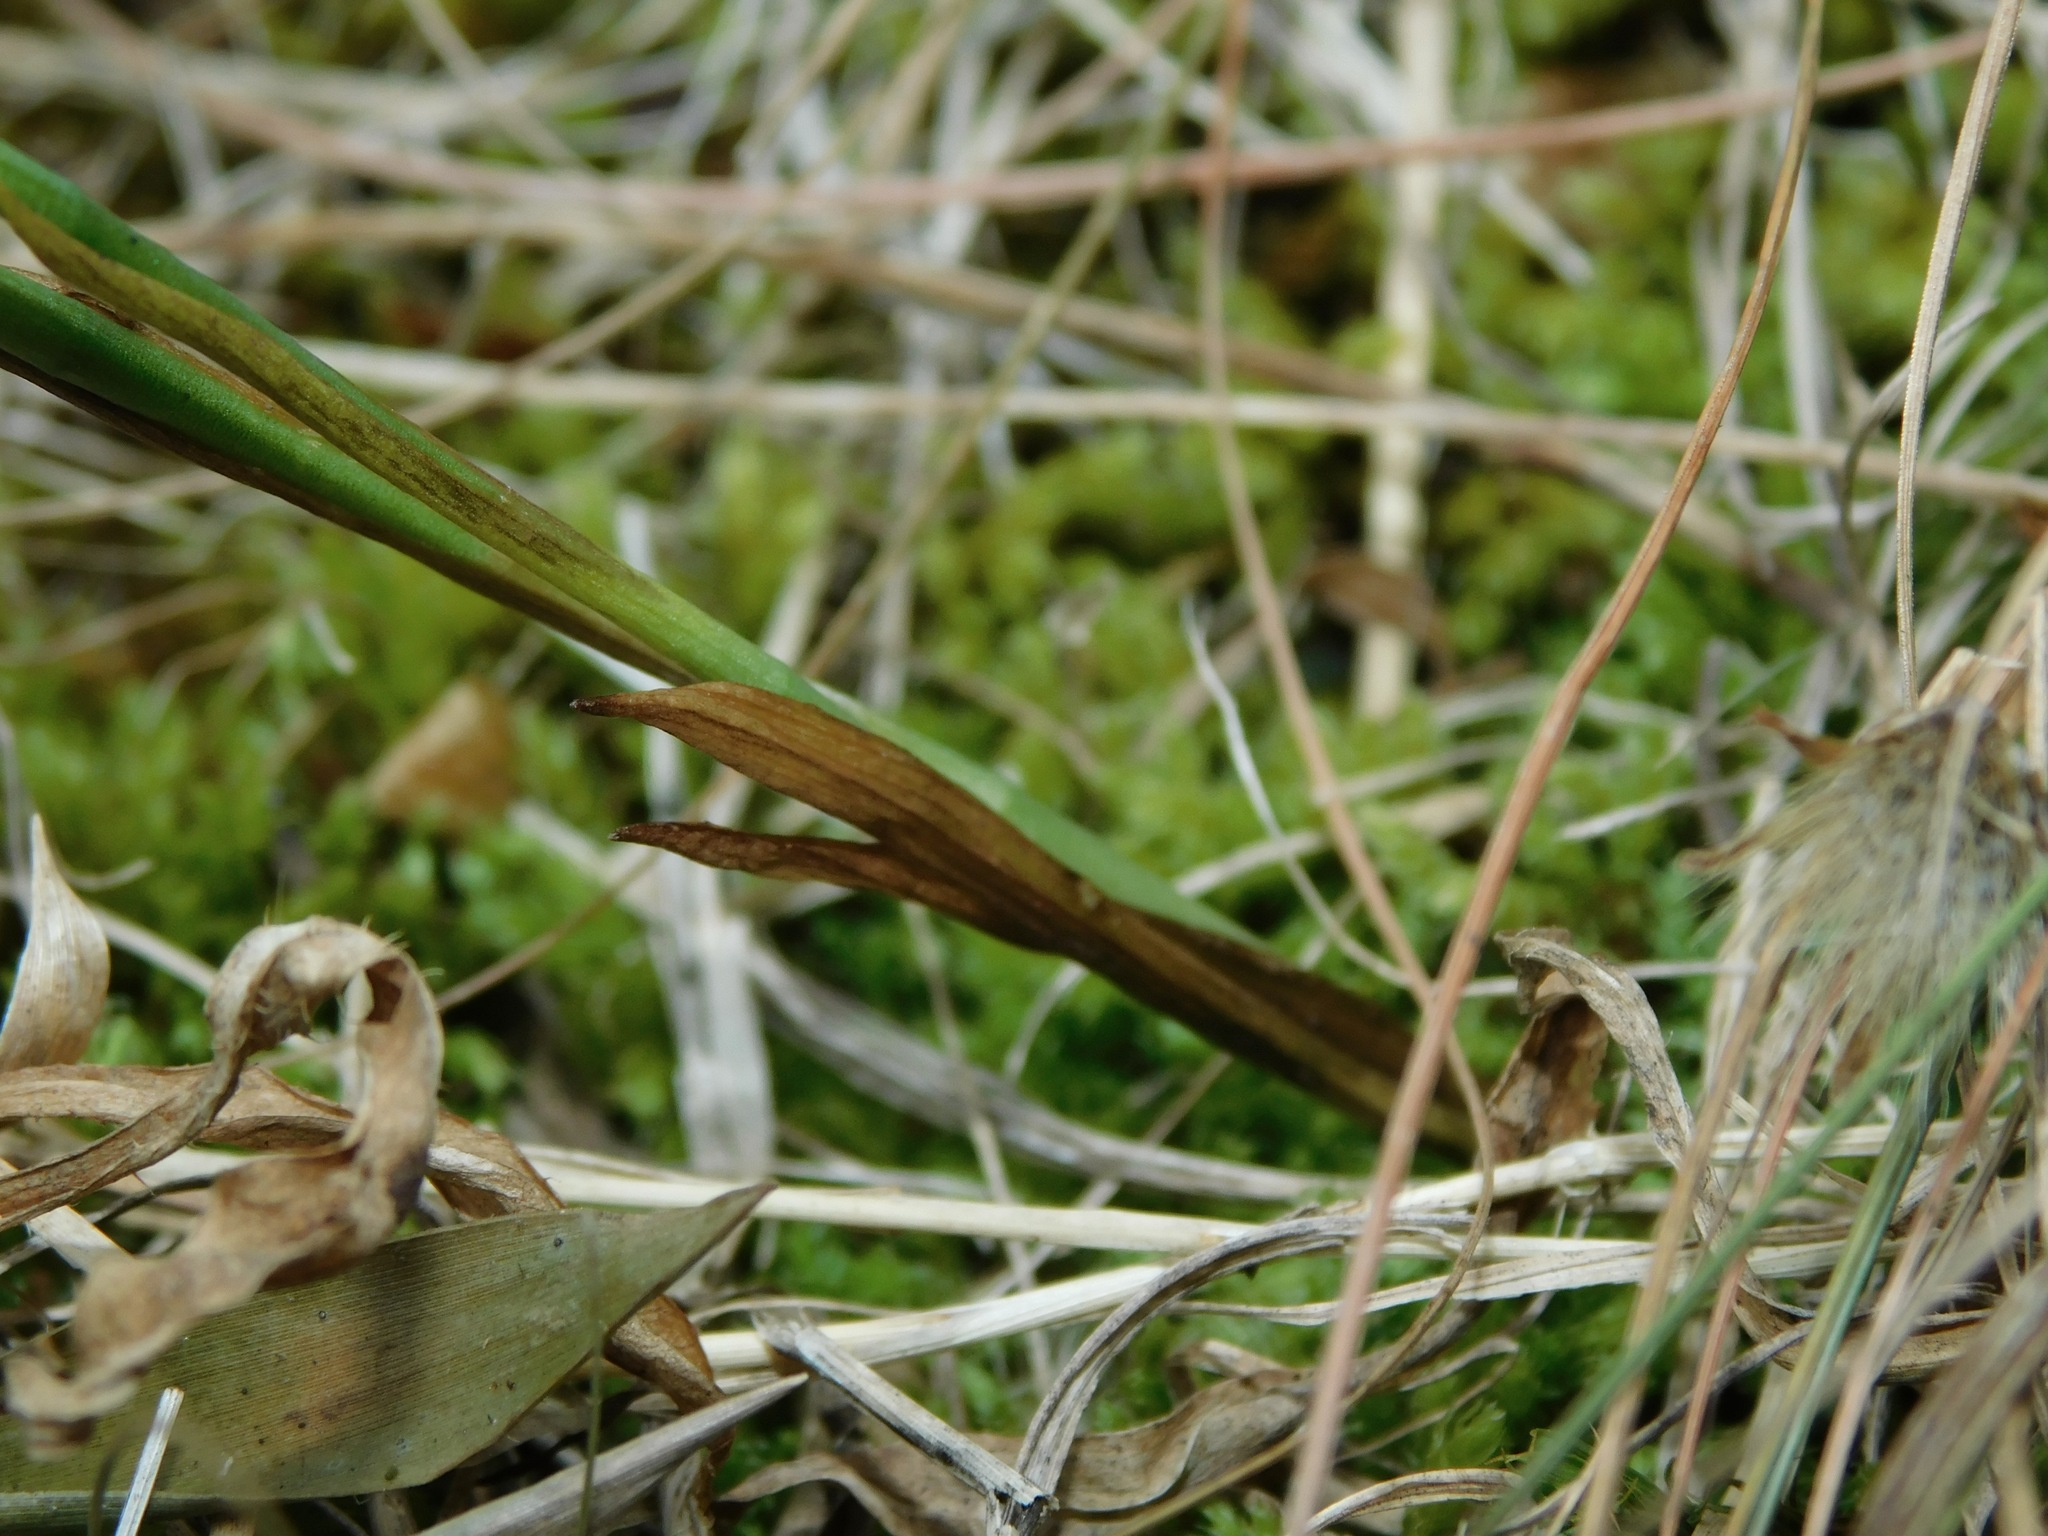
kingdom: Plantae
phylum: Tracheophyta
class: Liliopsida
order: Asparagales
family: Orchidaceae
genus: Spiranthes
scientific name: Spiranthes cernua
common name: Dropping ladies'-tresses
